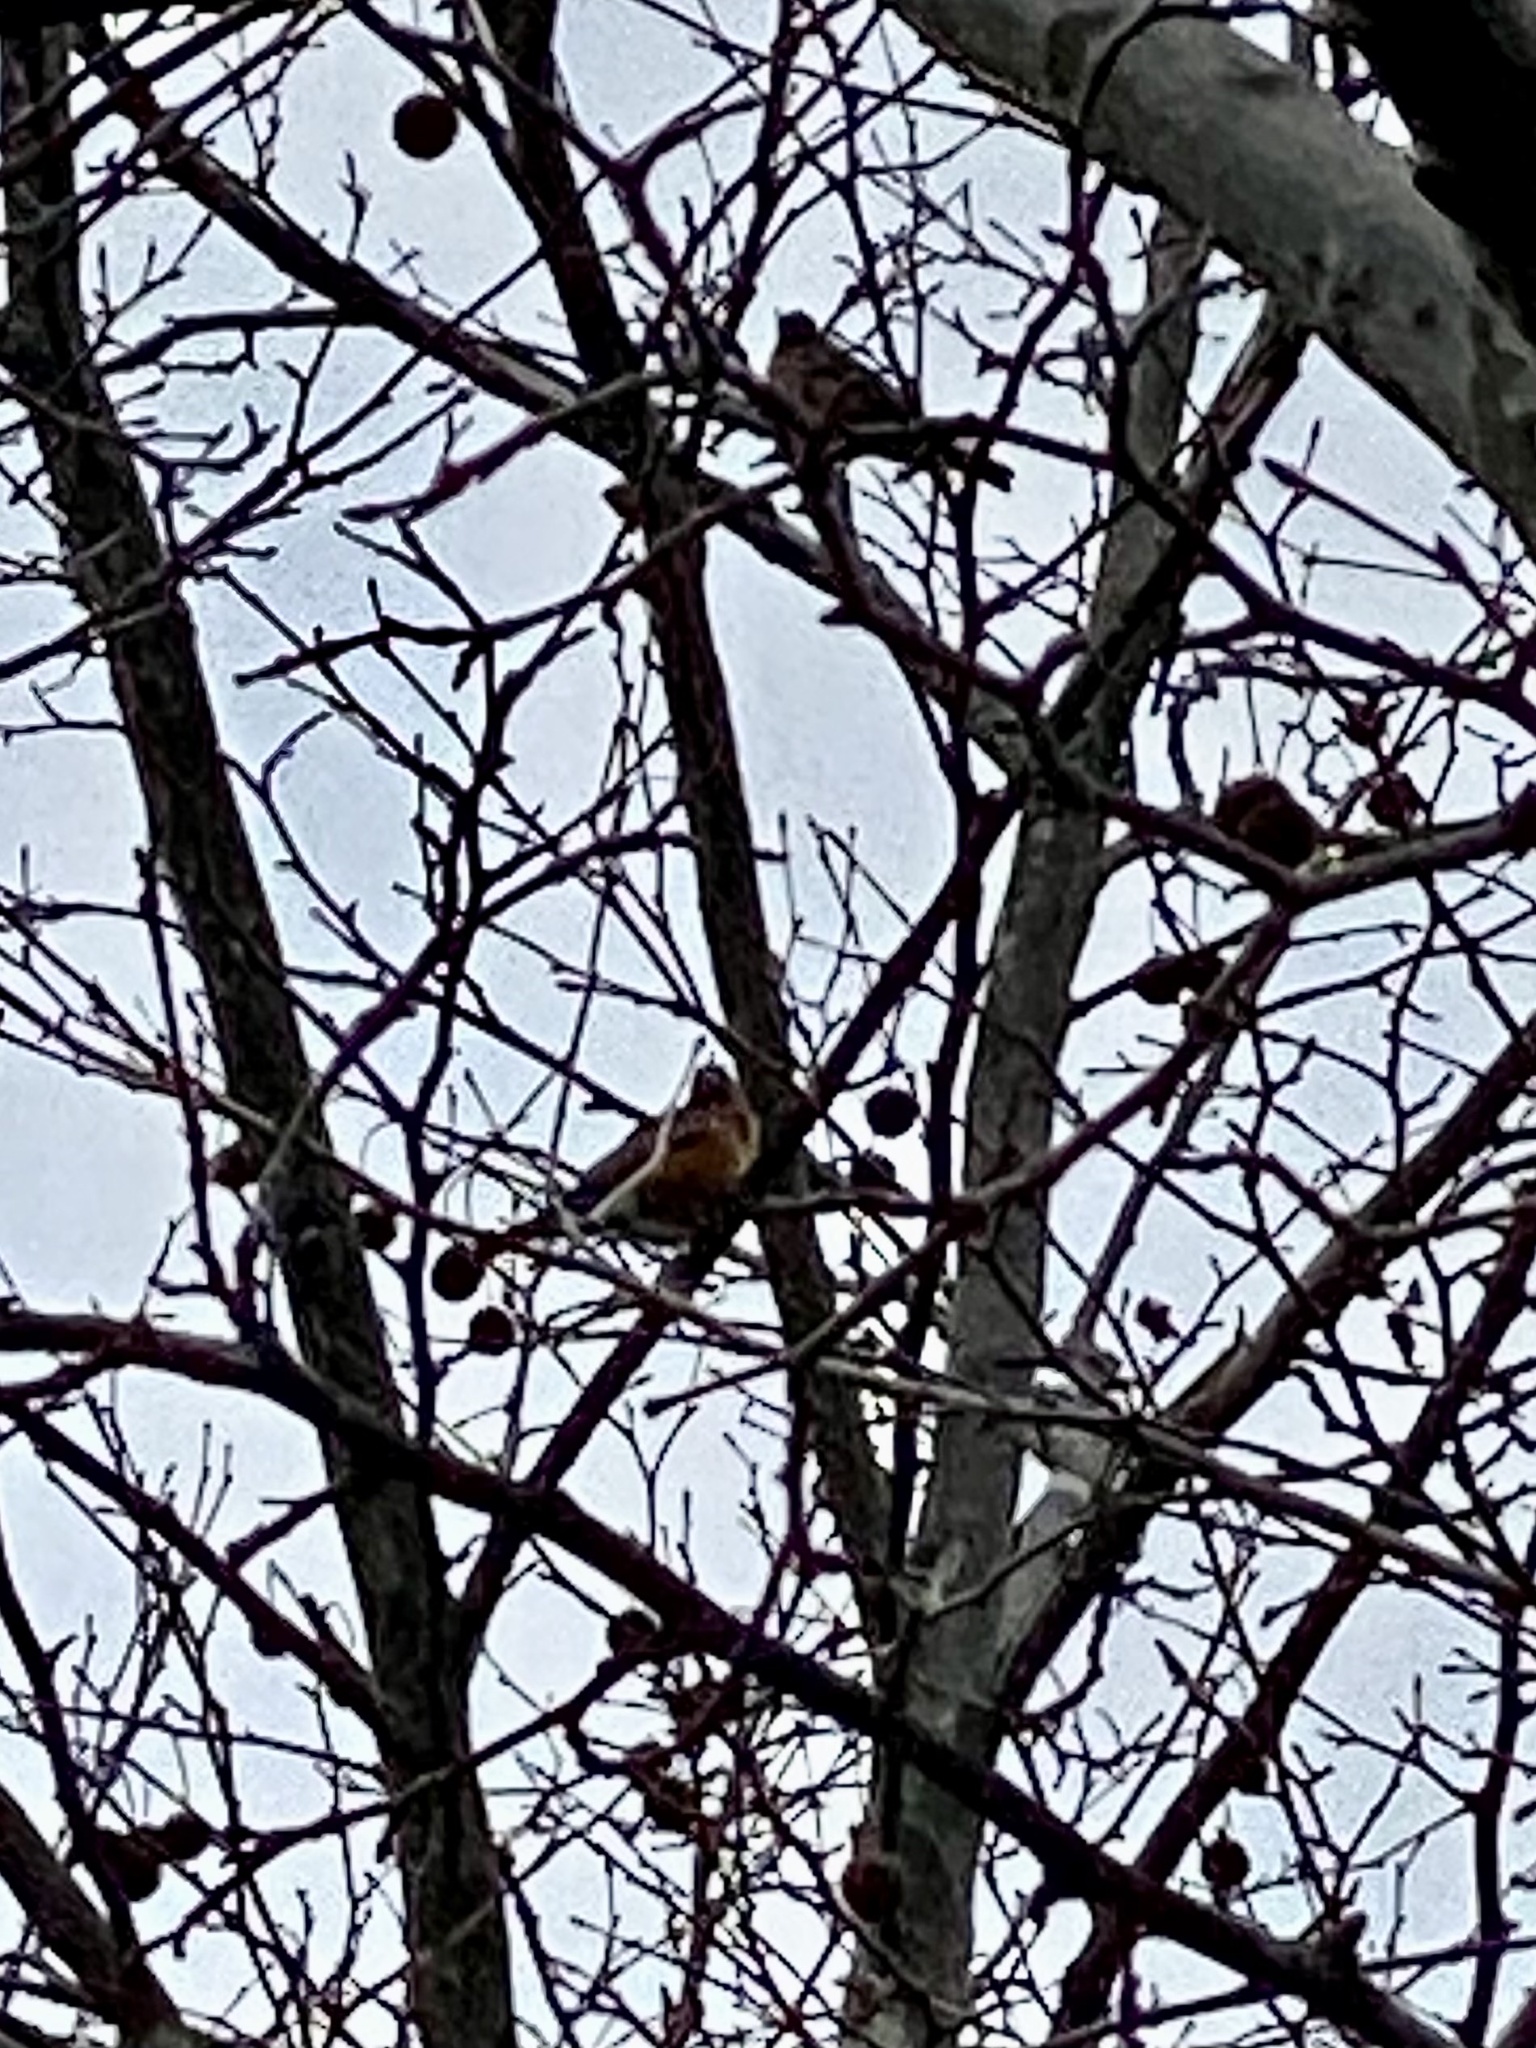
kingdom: Animalia
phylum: Chordata
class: Aves
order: Passeriformes
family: Turdidae
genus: Turdus
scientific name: Turdus migratorius
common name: American robin
